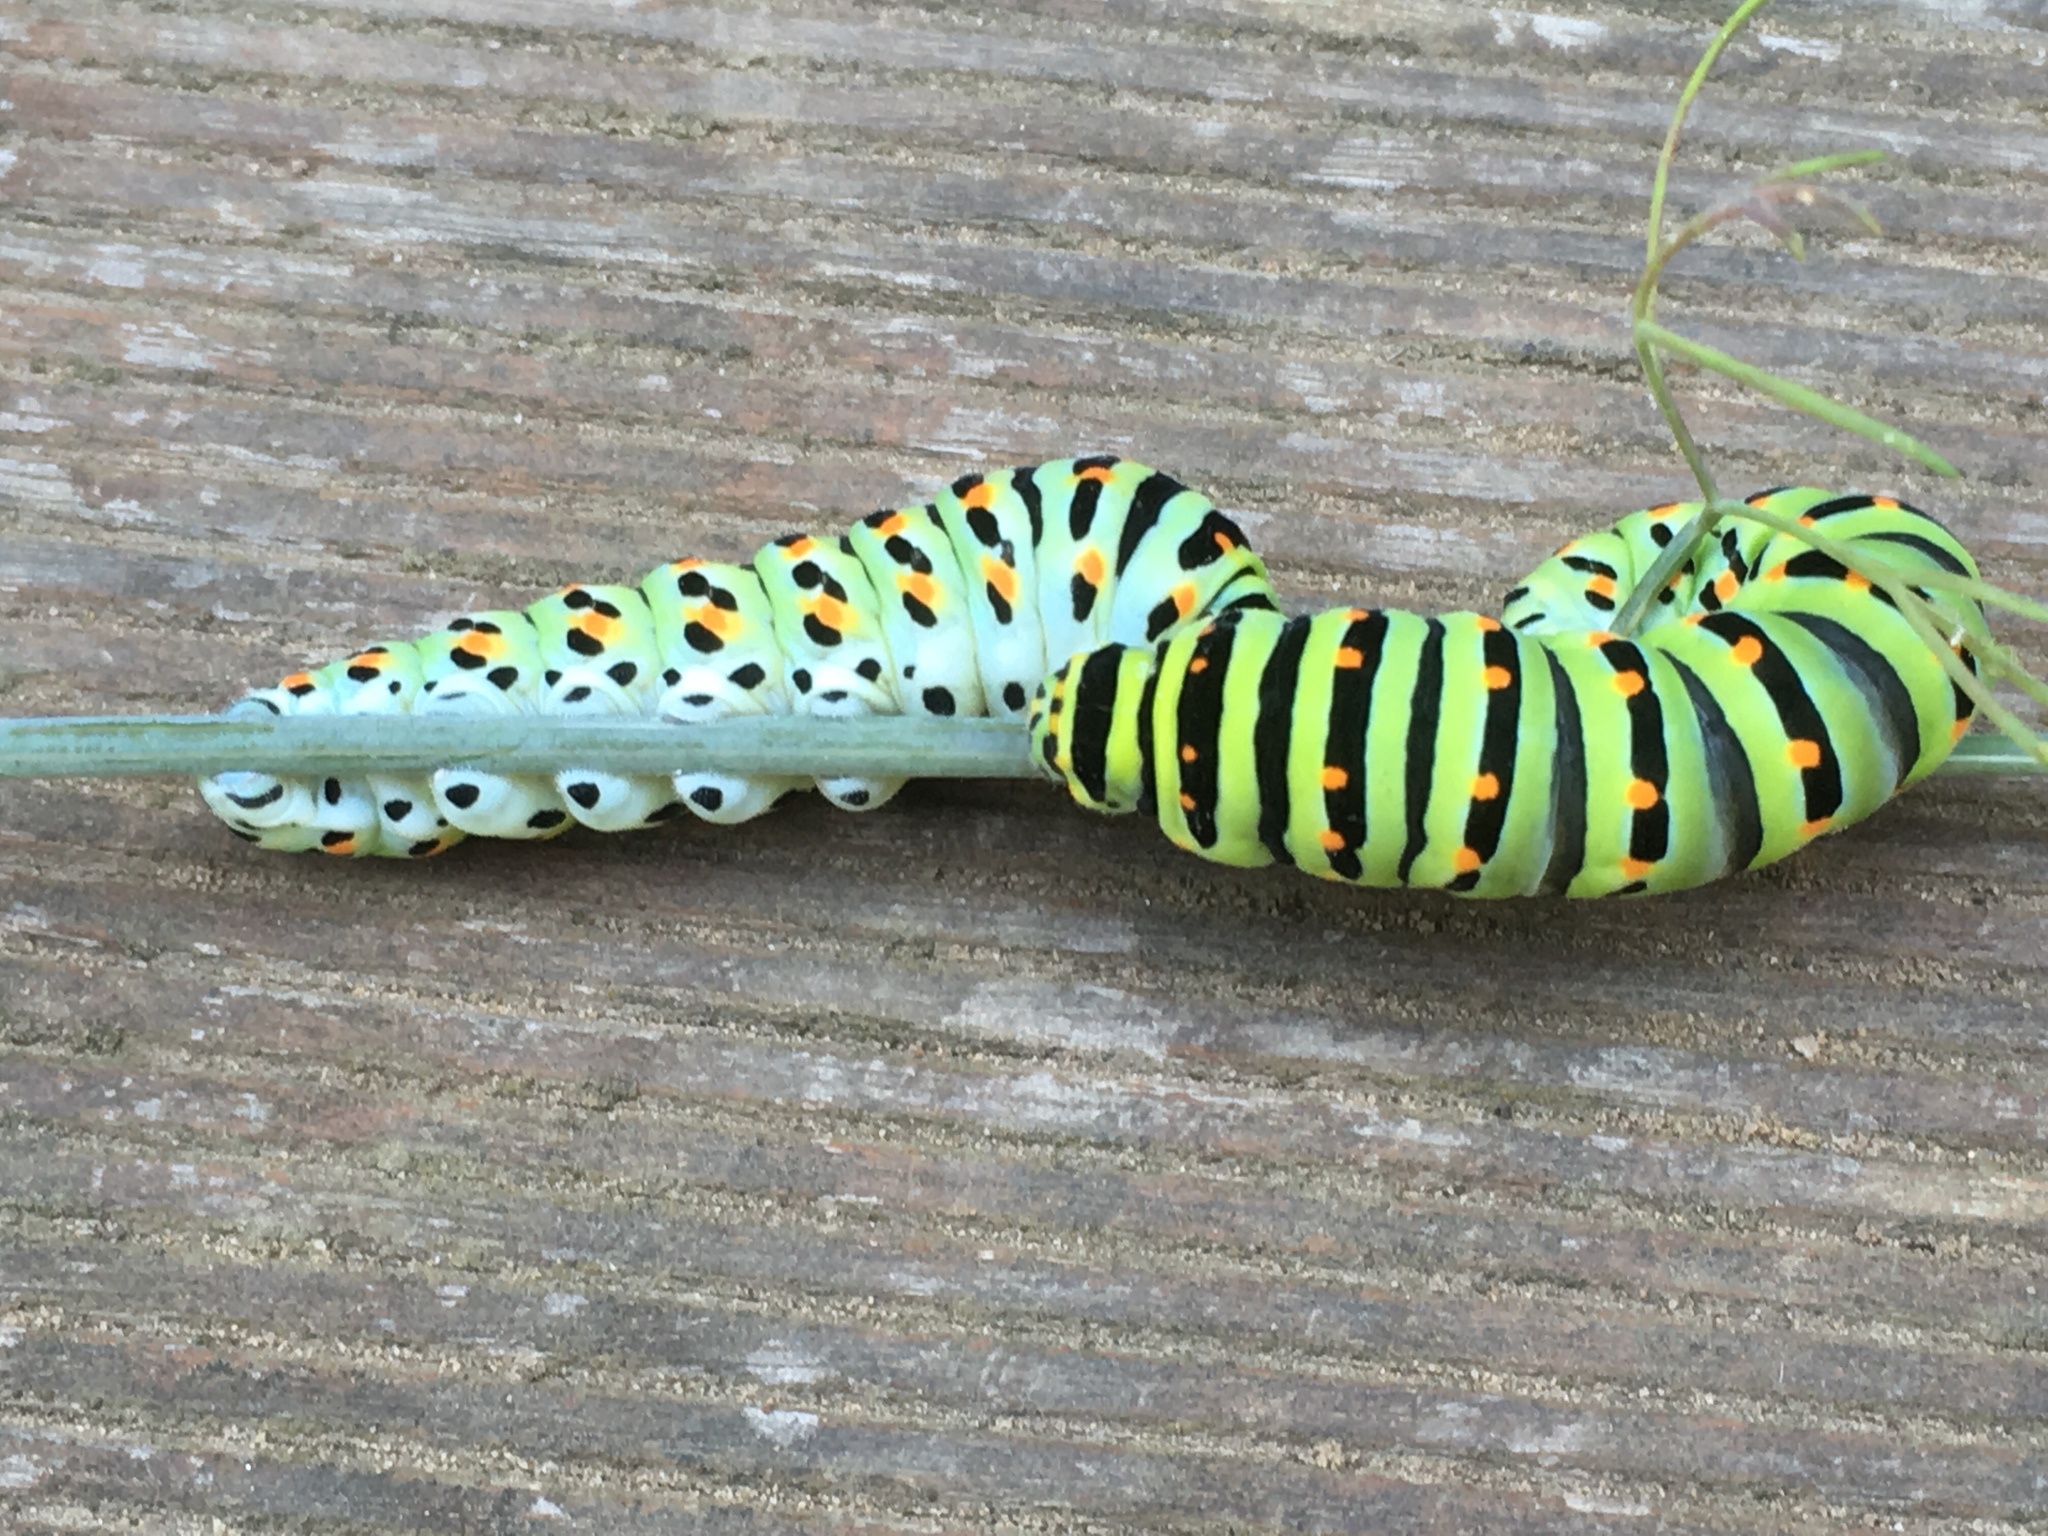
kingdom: Animalia
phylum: Arthropoda
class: Insecta
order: Lepidoptera
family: Papilionidae
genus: Papilio
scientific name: Papilio machaon
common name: Swallowtail
